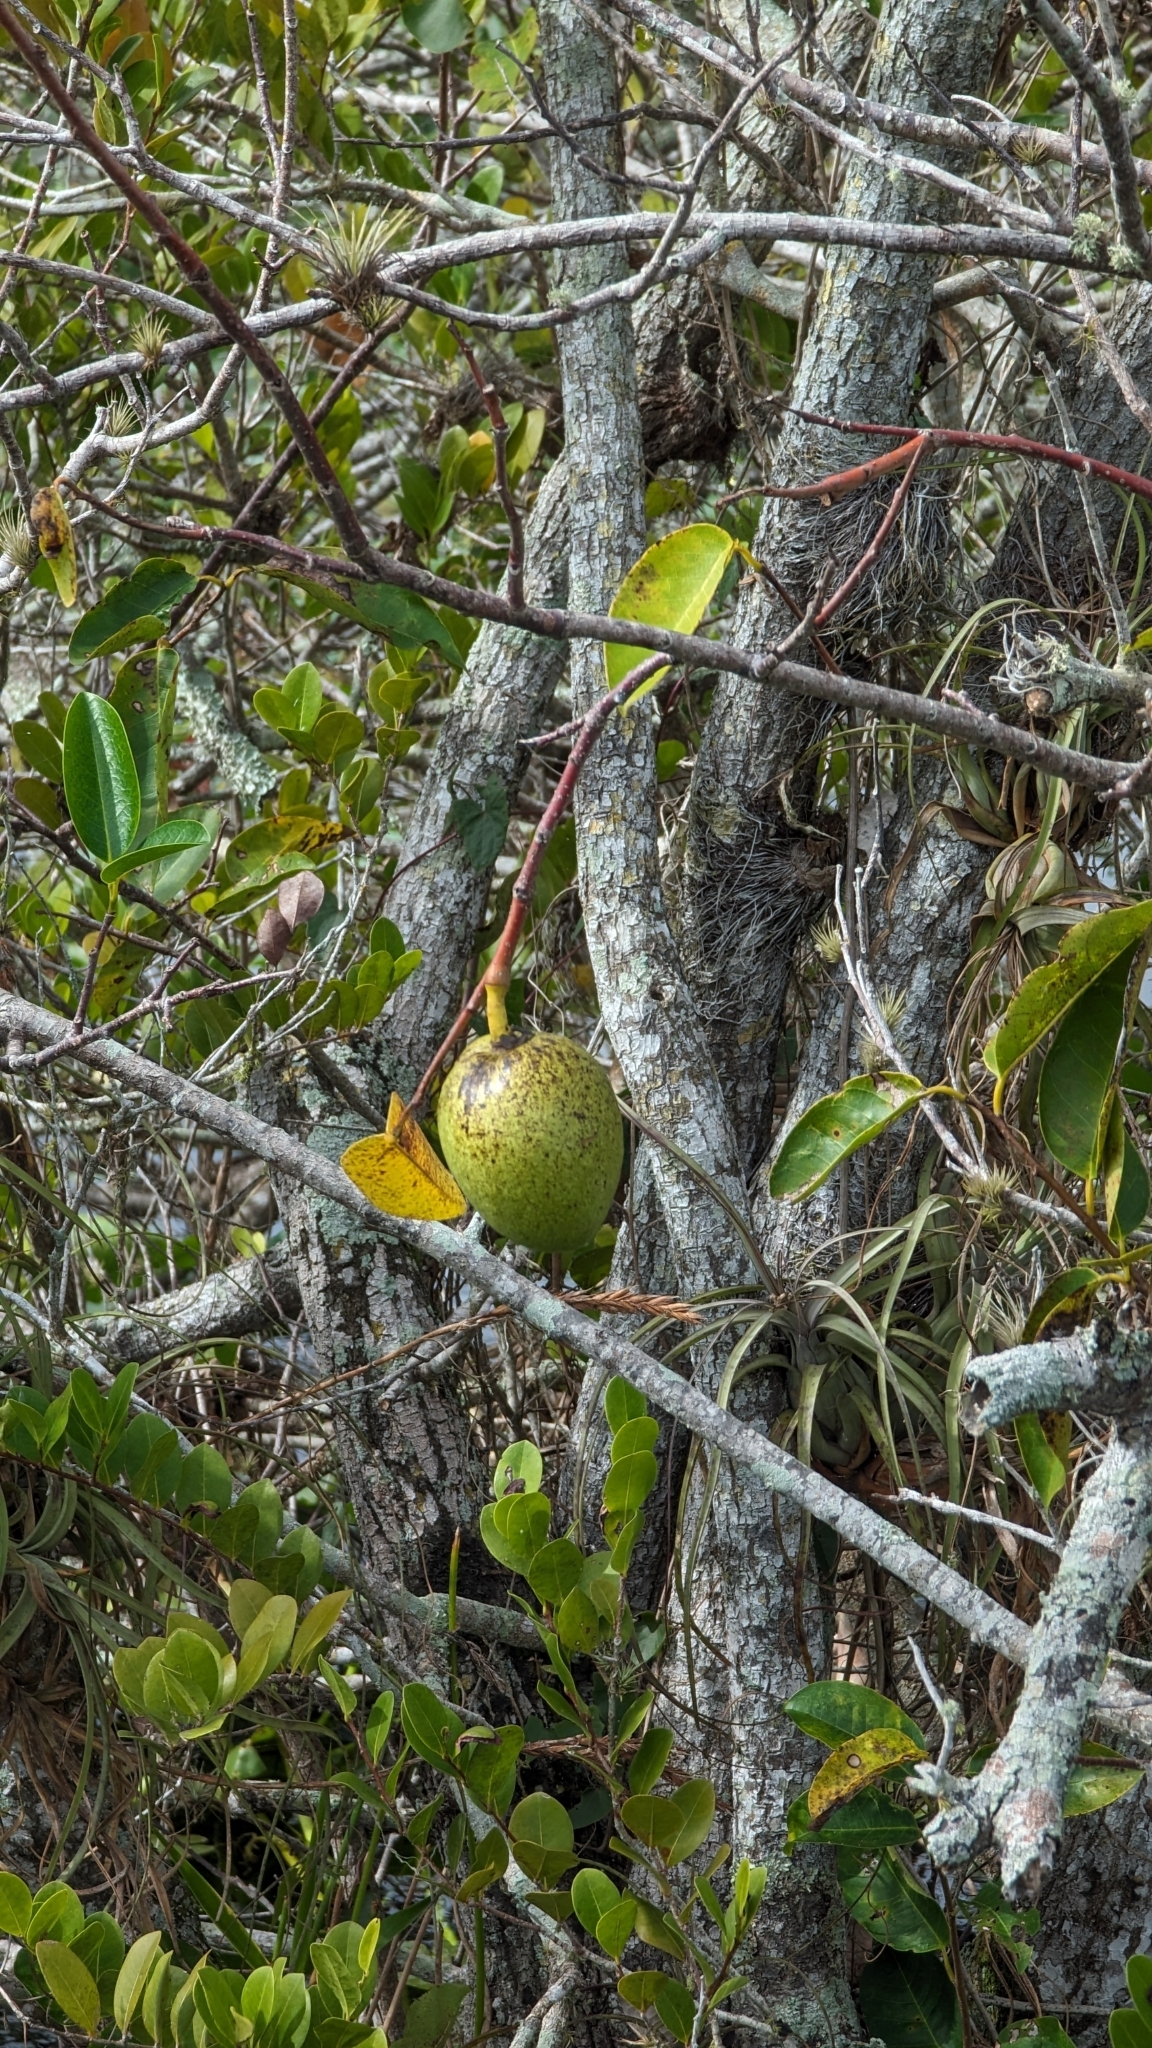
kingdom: Plantae
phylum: Tracheophyta
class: Magnoliopsida
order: Magnoliales
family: Annonaceae
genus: Annona
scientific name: Annona glabra
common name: Monkey apple
